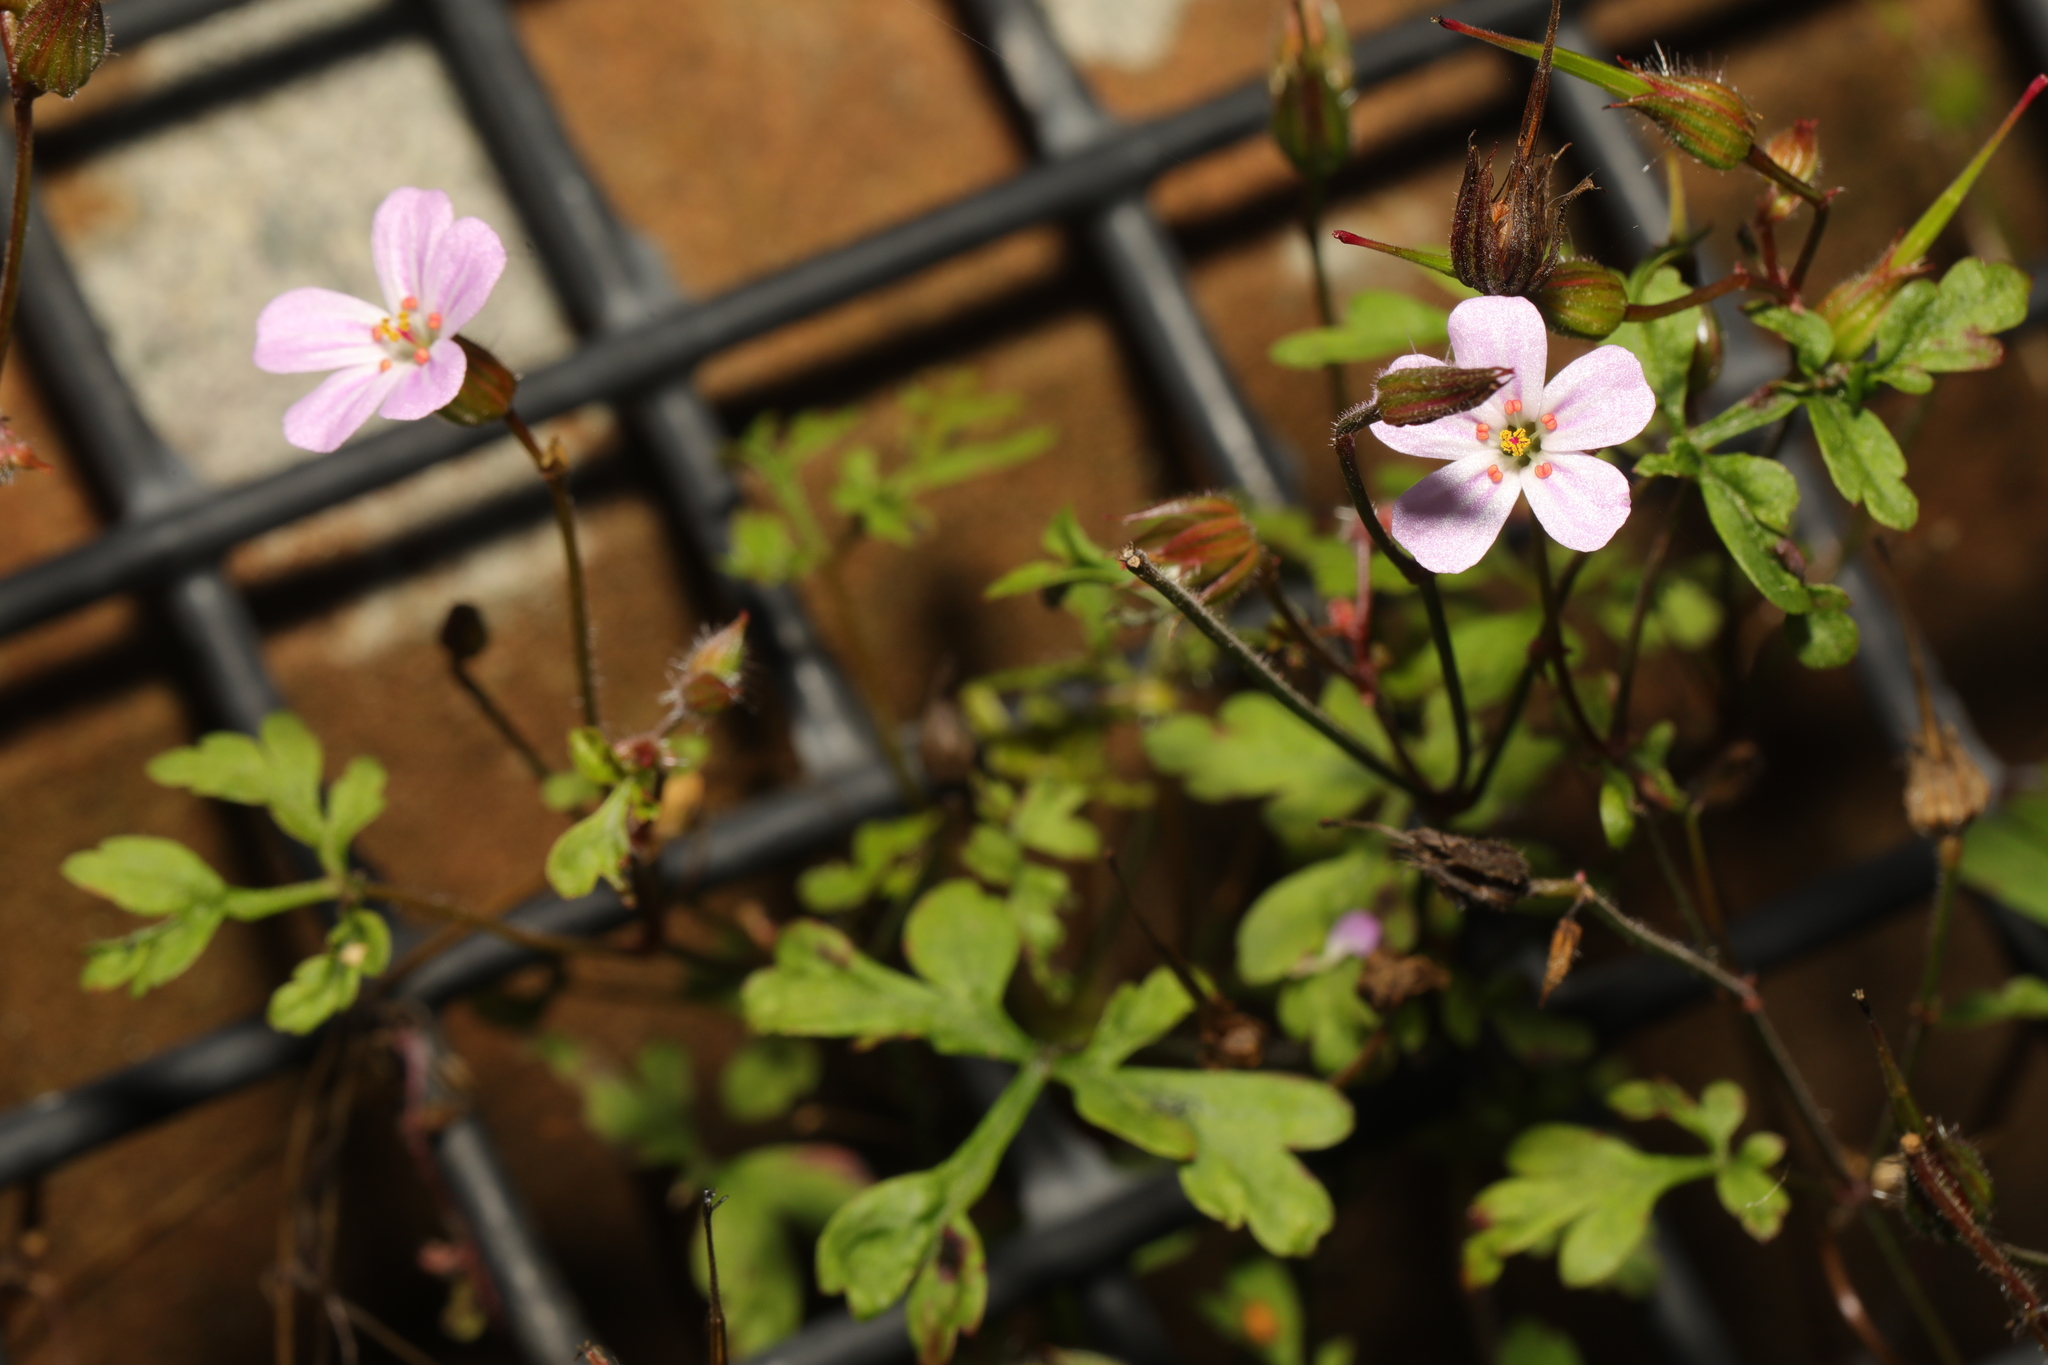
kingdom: Plantae
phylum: Tracheophyta
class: Magnoliopsida
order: Geraniales
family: Geraniaceae
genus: Geranium
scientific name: Geranium robertianum
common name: Herb-robert
